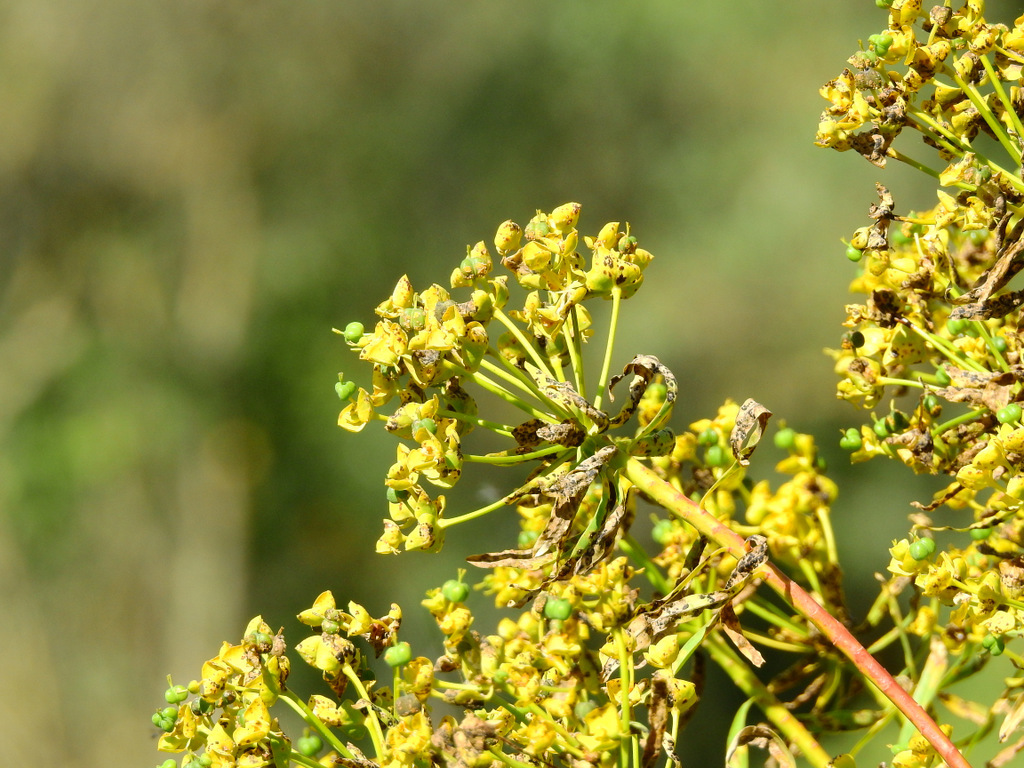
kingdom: Plantae
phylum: Tracheophyta
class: Magnoliopsida
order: Malpighiales
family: Euphorbiaceae
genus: Euphorbia
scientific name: Euphorbia dendroides
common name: Tree spurge
